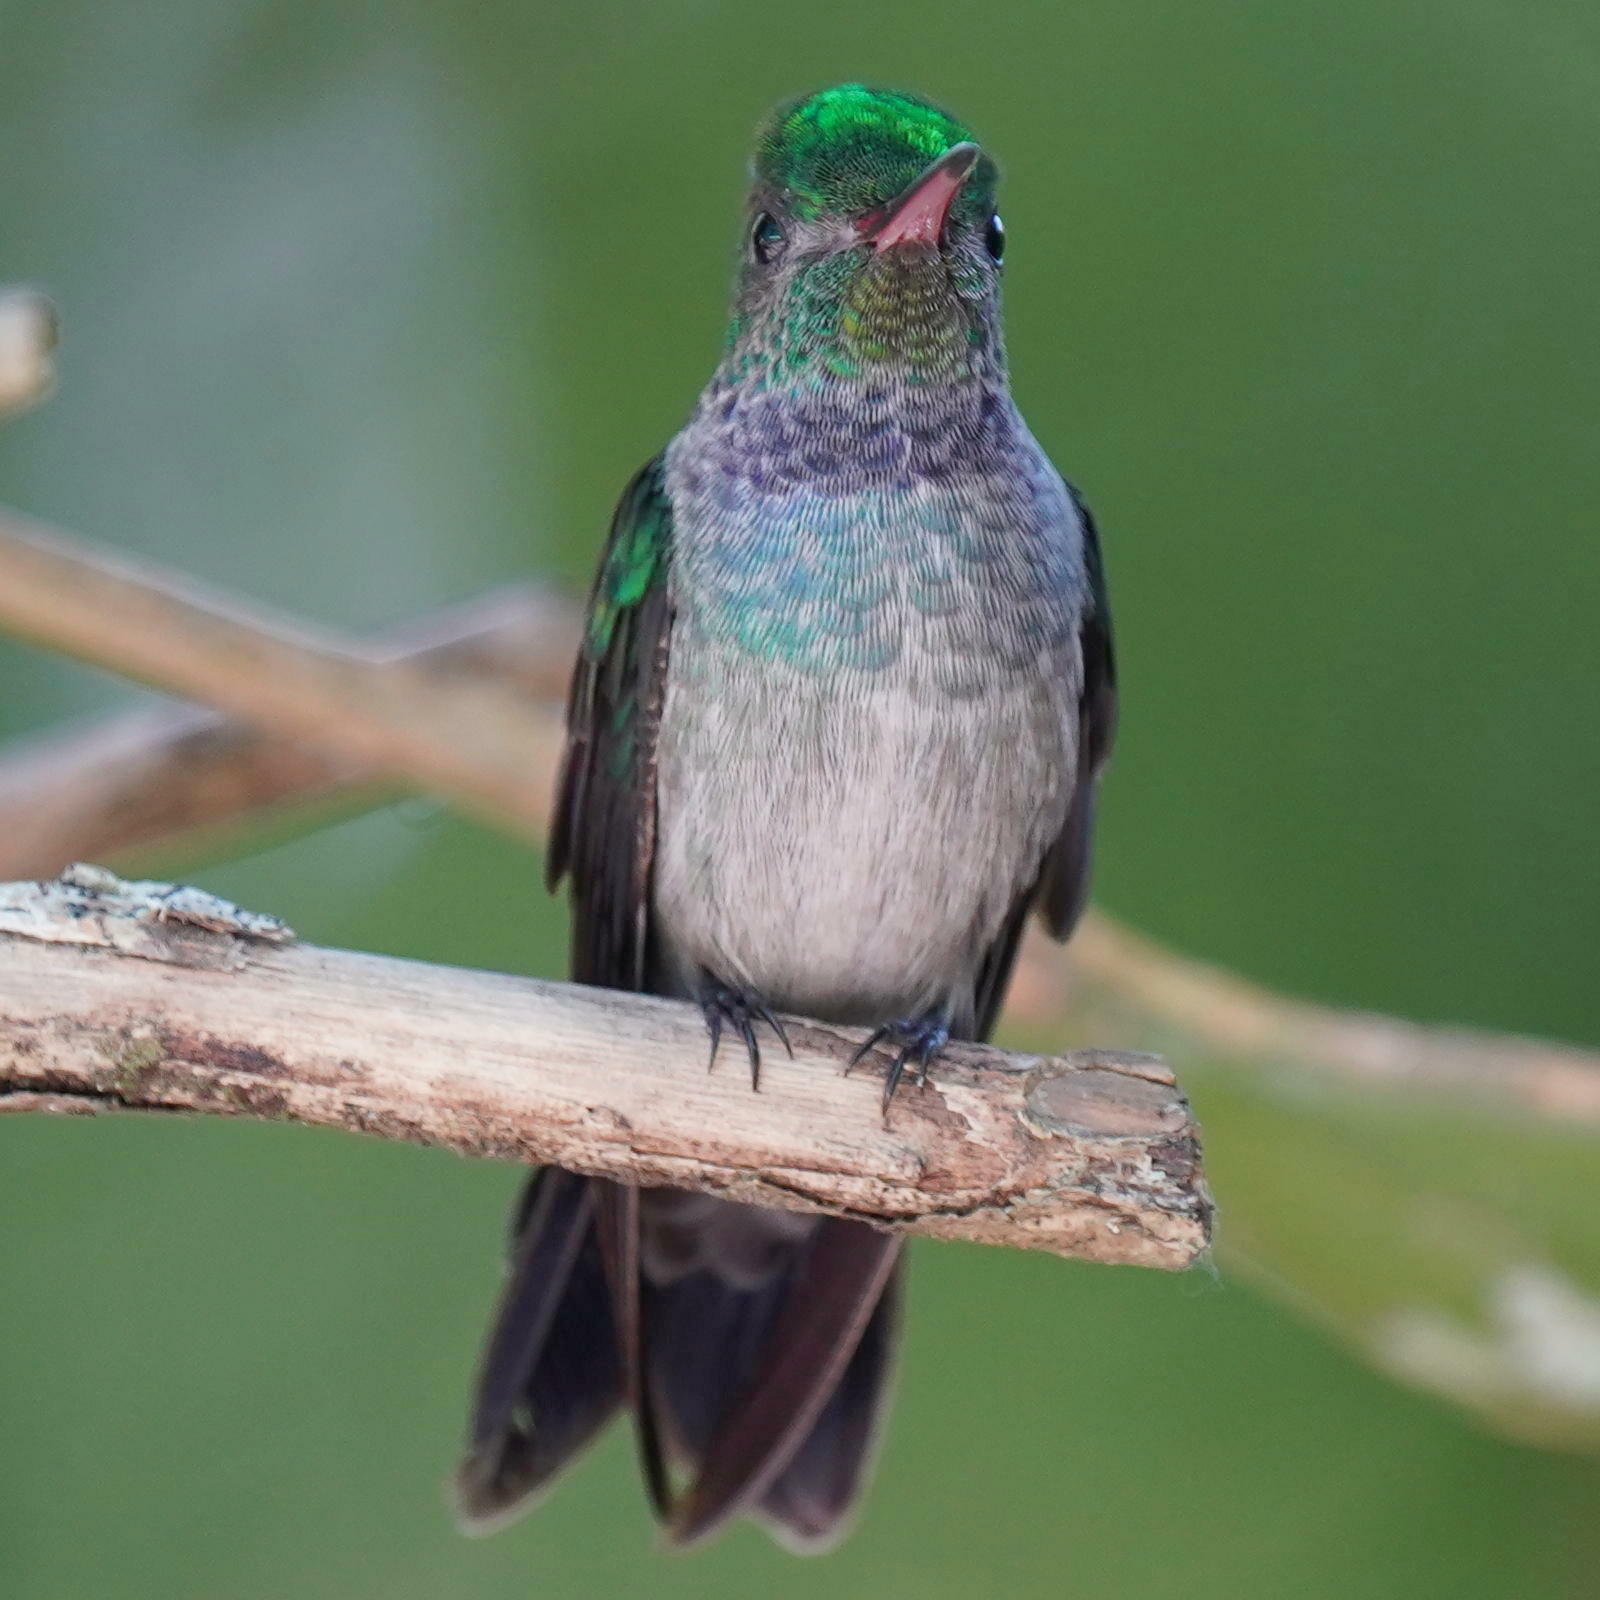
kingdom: Animalia
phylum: Chordata
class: Aves
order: Apodiformes
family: Trochilidae
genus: Polyerata
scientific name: Polyerata amabilis
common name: Blue-chested hummingbird
